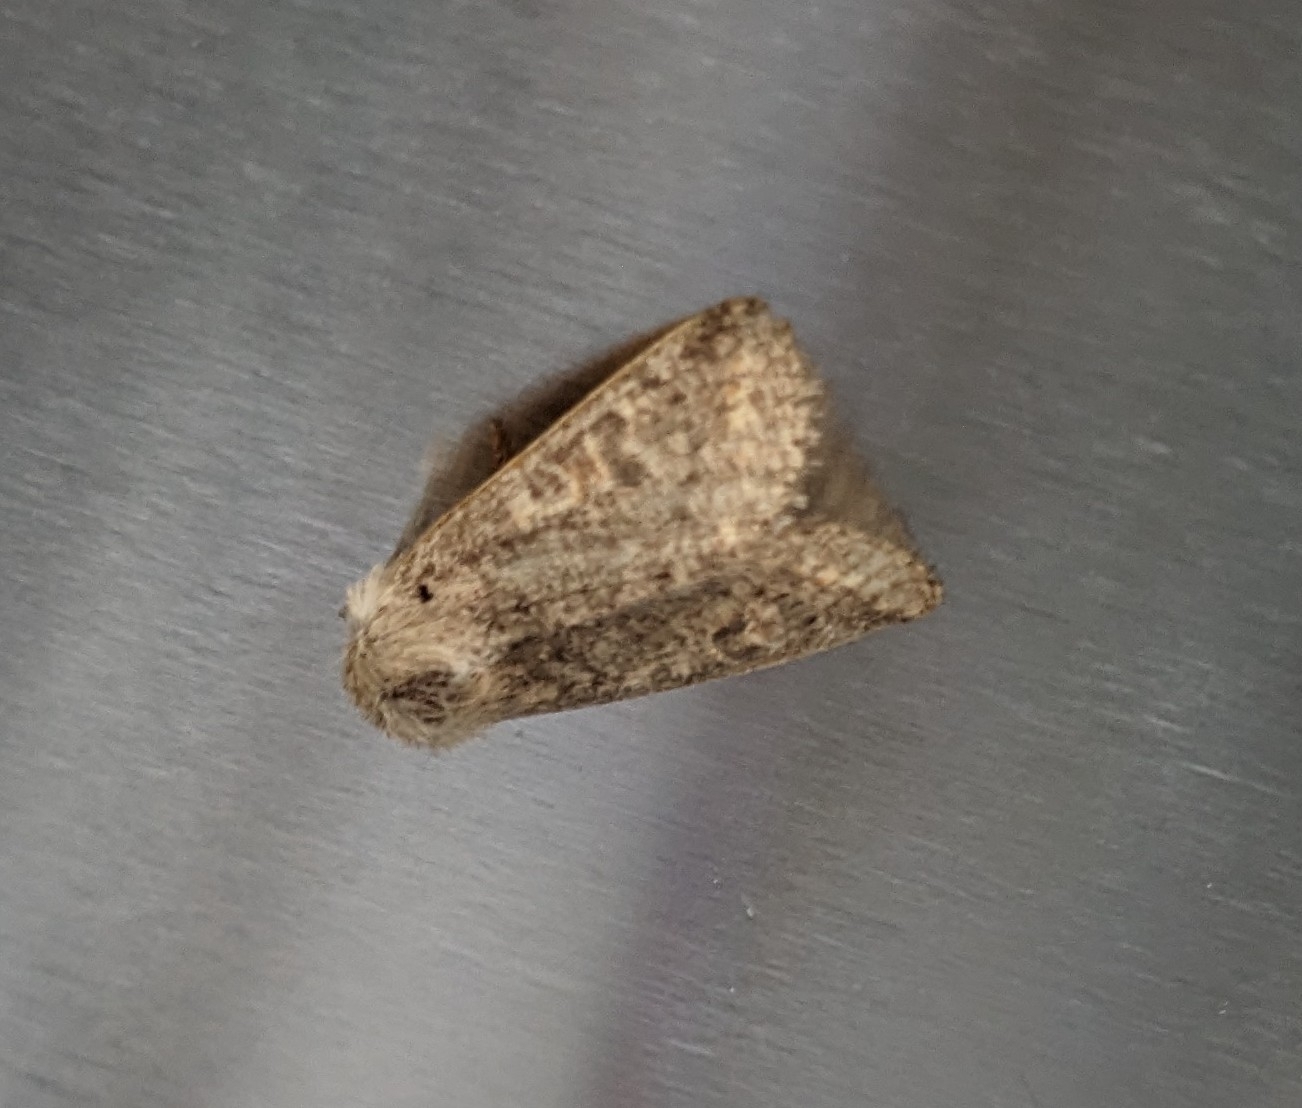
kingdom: Animalia
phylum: Arthropoda
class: Insecta
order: Lepidoptera
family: Noctuidae
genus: Orthosia
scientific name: Orthosia cruda
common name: Small quaker
